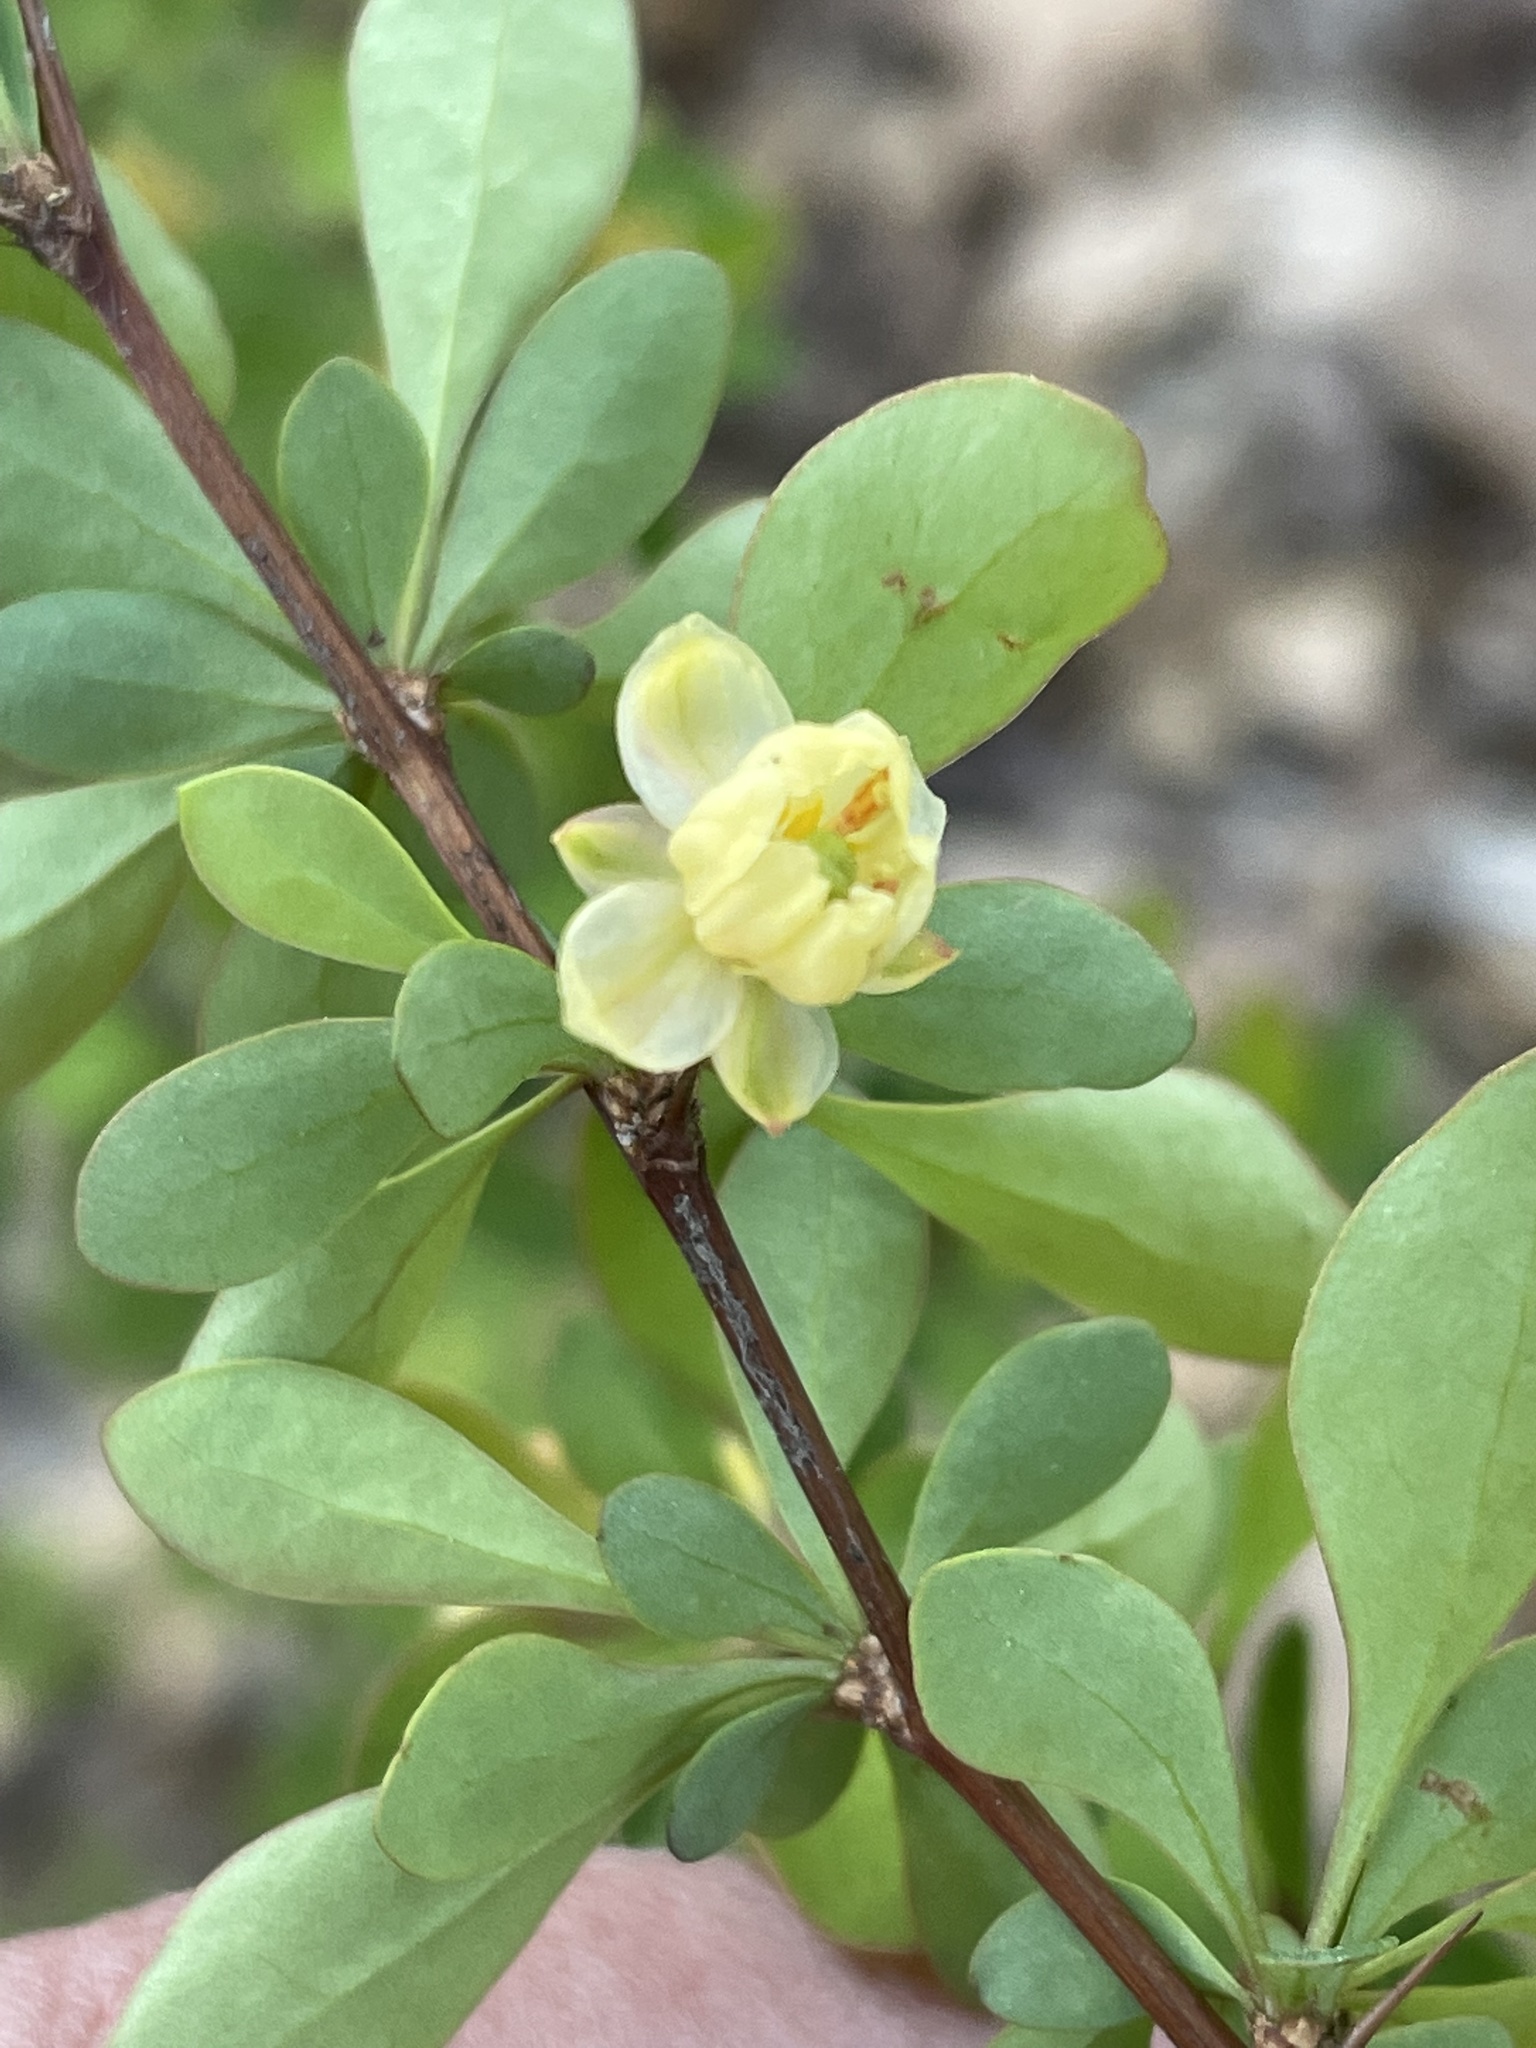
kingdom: Plantae
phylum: Tracheophyta
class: Magnoliopsida
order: Ranunculales
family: Berberidaceae
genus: Berberis
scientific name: Berberis thunbergii
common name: Japanese barberry
